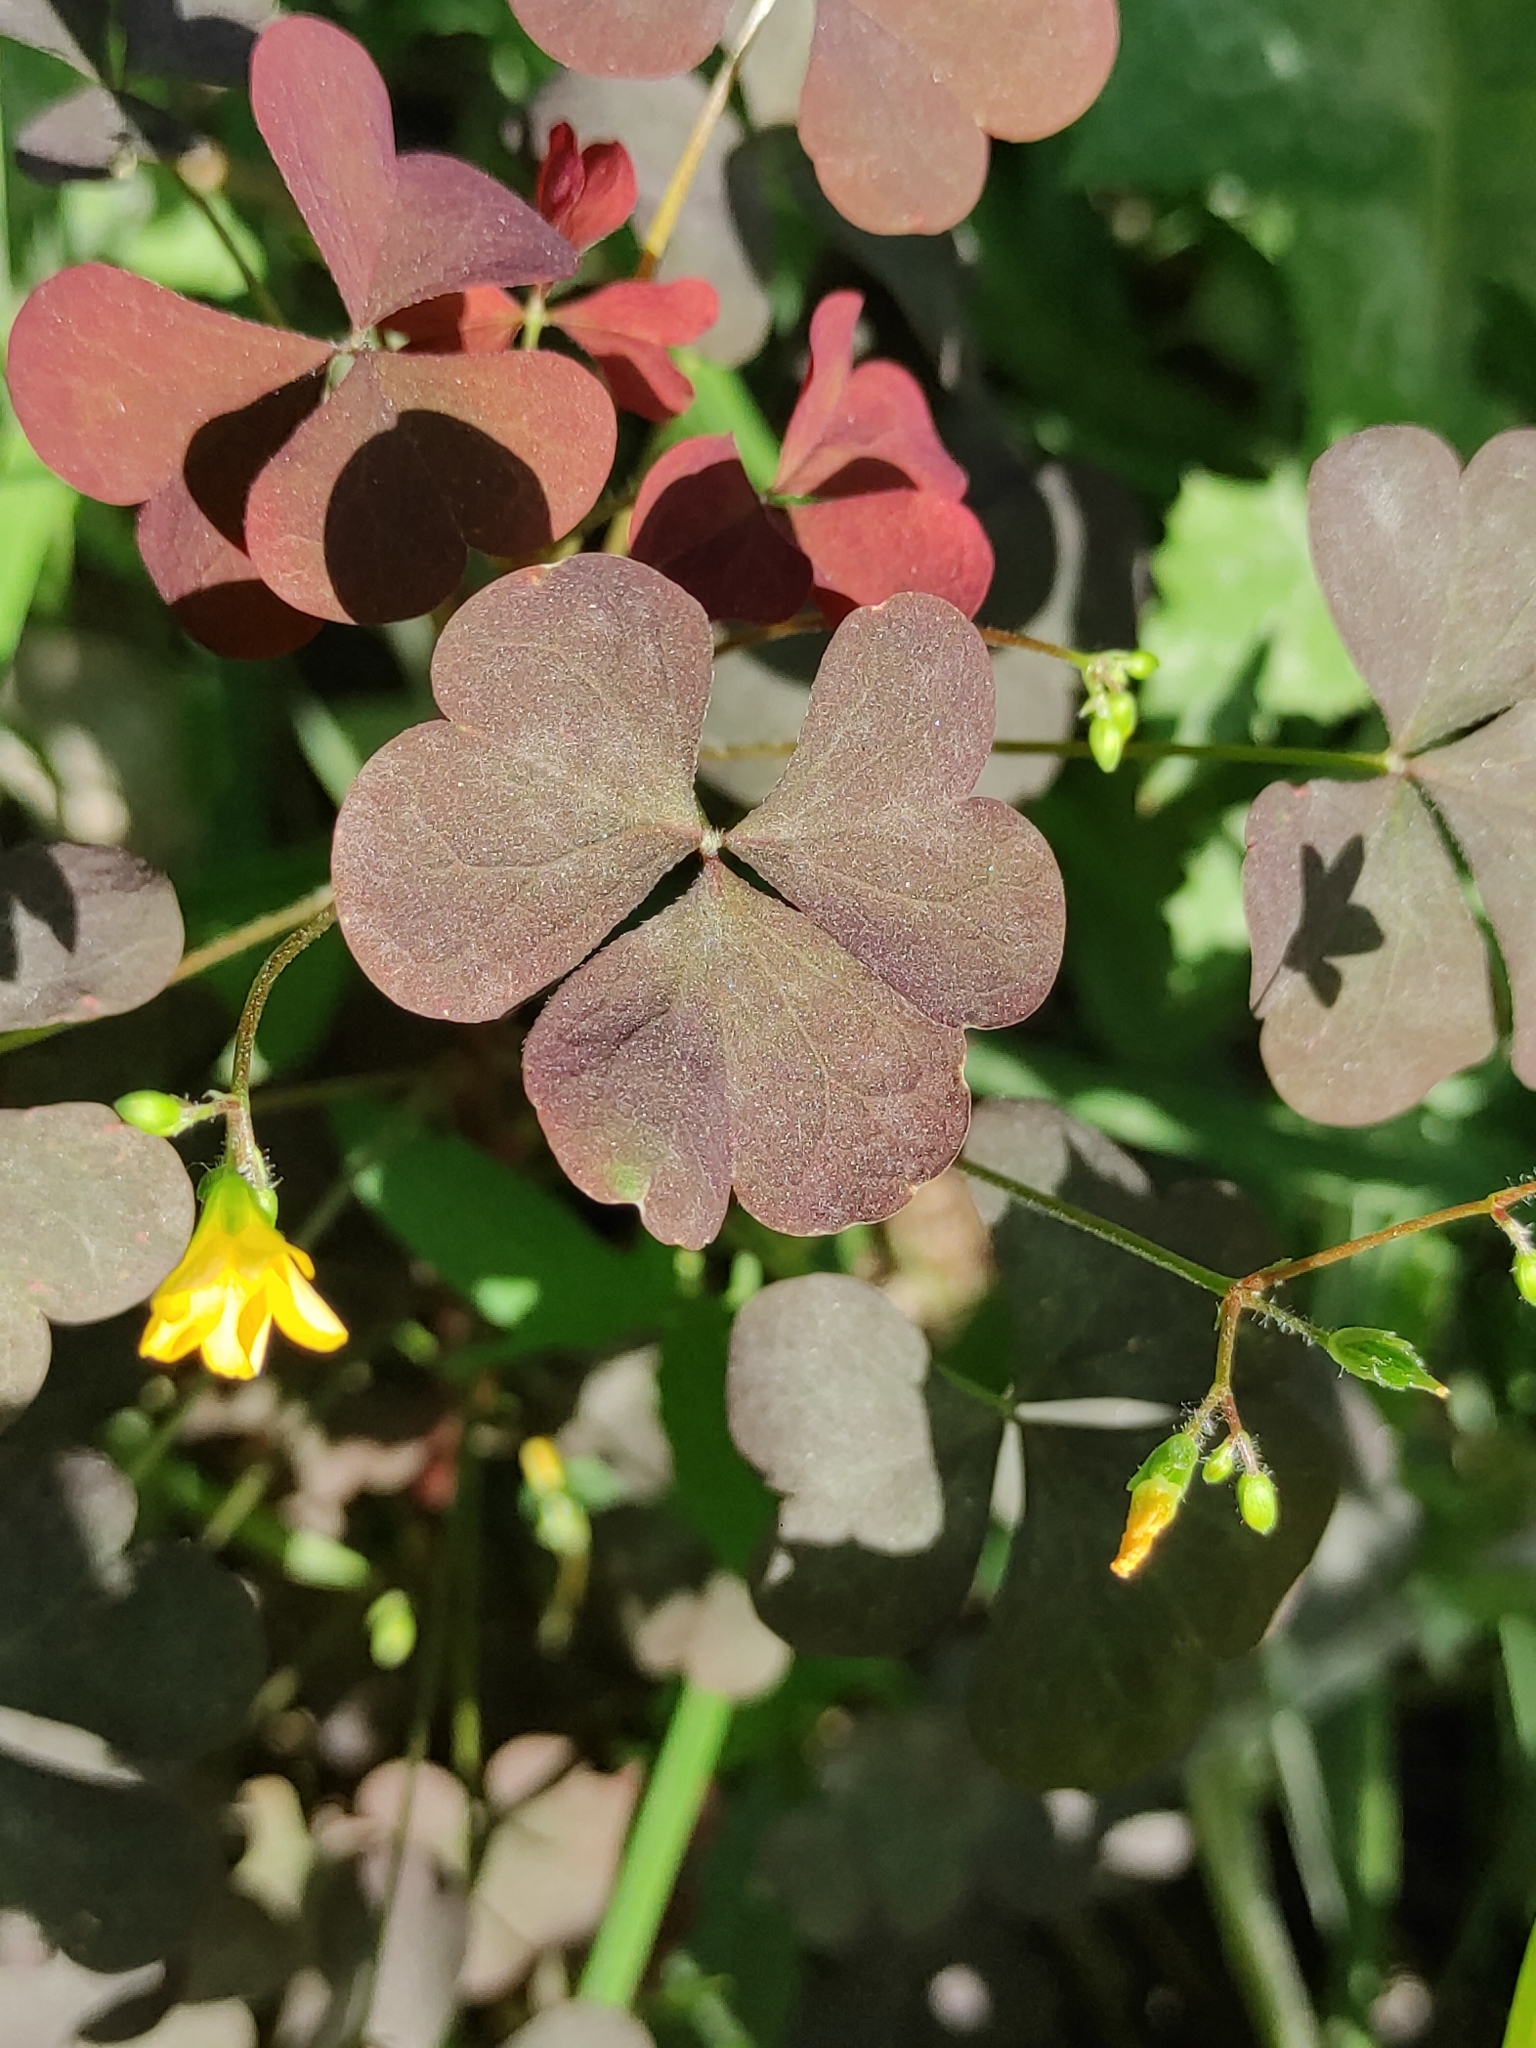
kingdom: Plantae
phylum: Tracheophyta
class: Magnoliopsida
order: Oxalidales
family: Oxalidaceae
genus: Oxalis
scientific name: Oxalis stricta
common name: Upright yellow-sorrel
